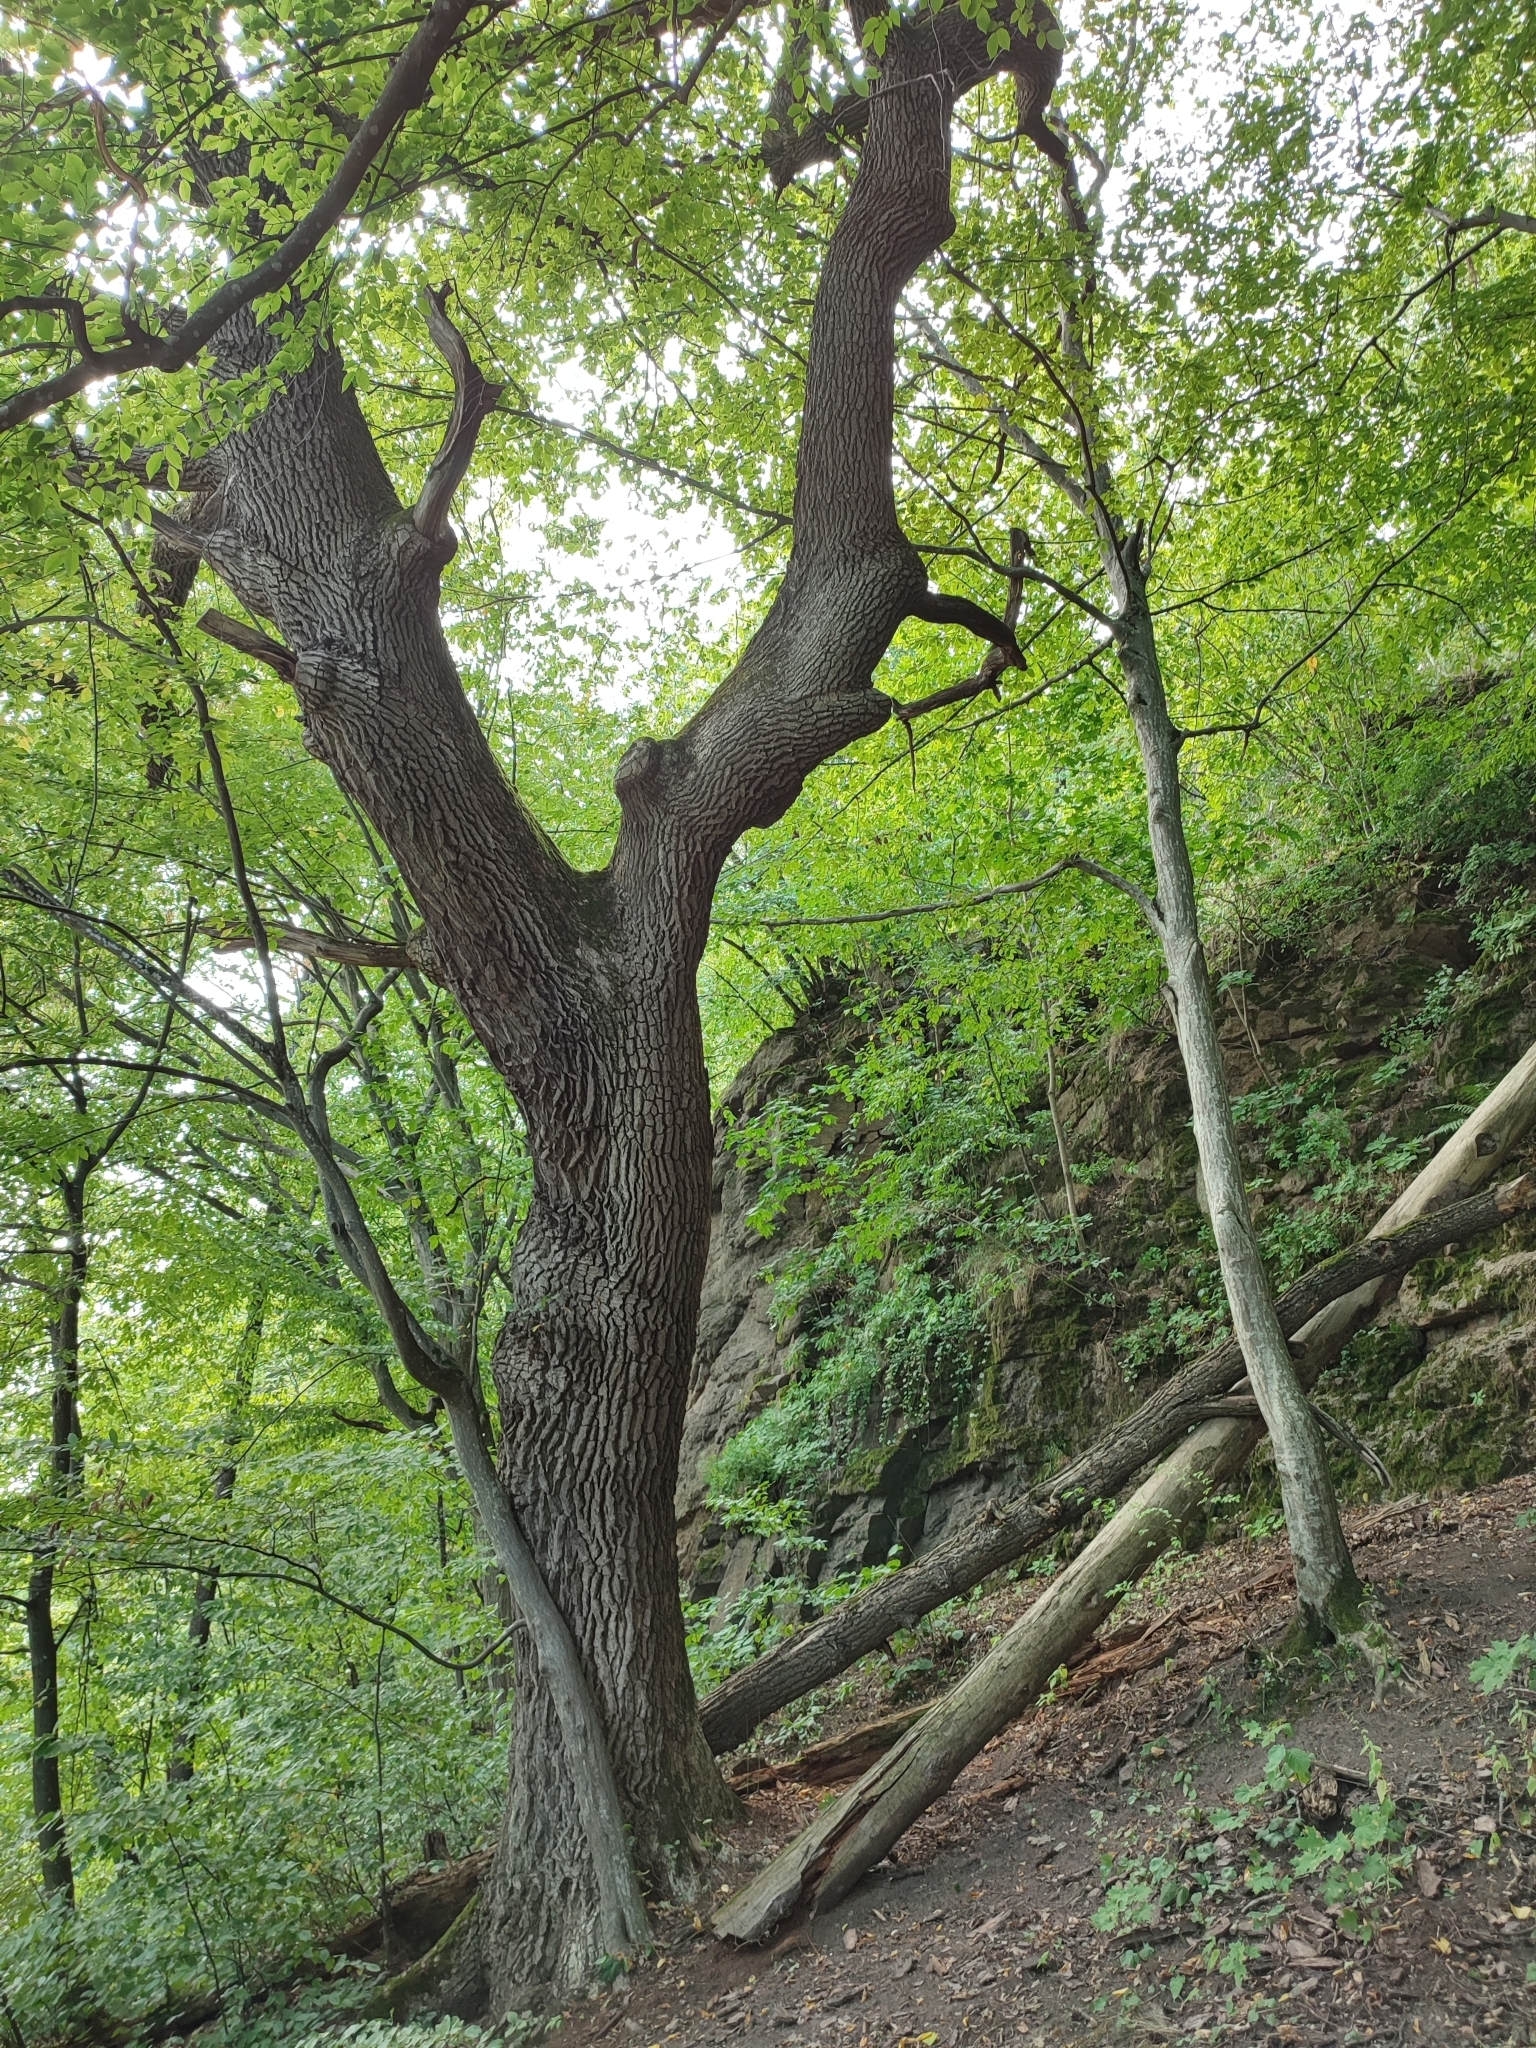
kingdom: Plantae
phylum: Tracheophyta
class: Magnoliopsida
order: Fagales
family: Fagaceae
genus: Quercus
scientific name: Quercus robur
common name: Pedunculate oak
